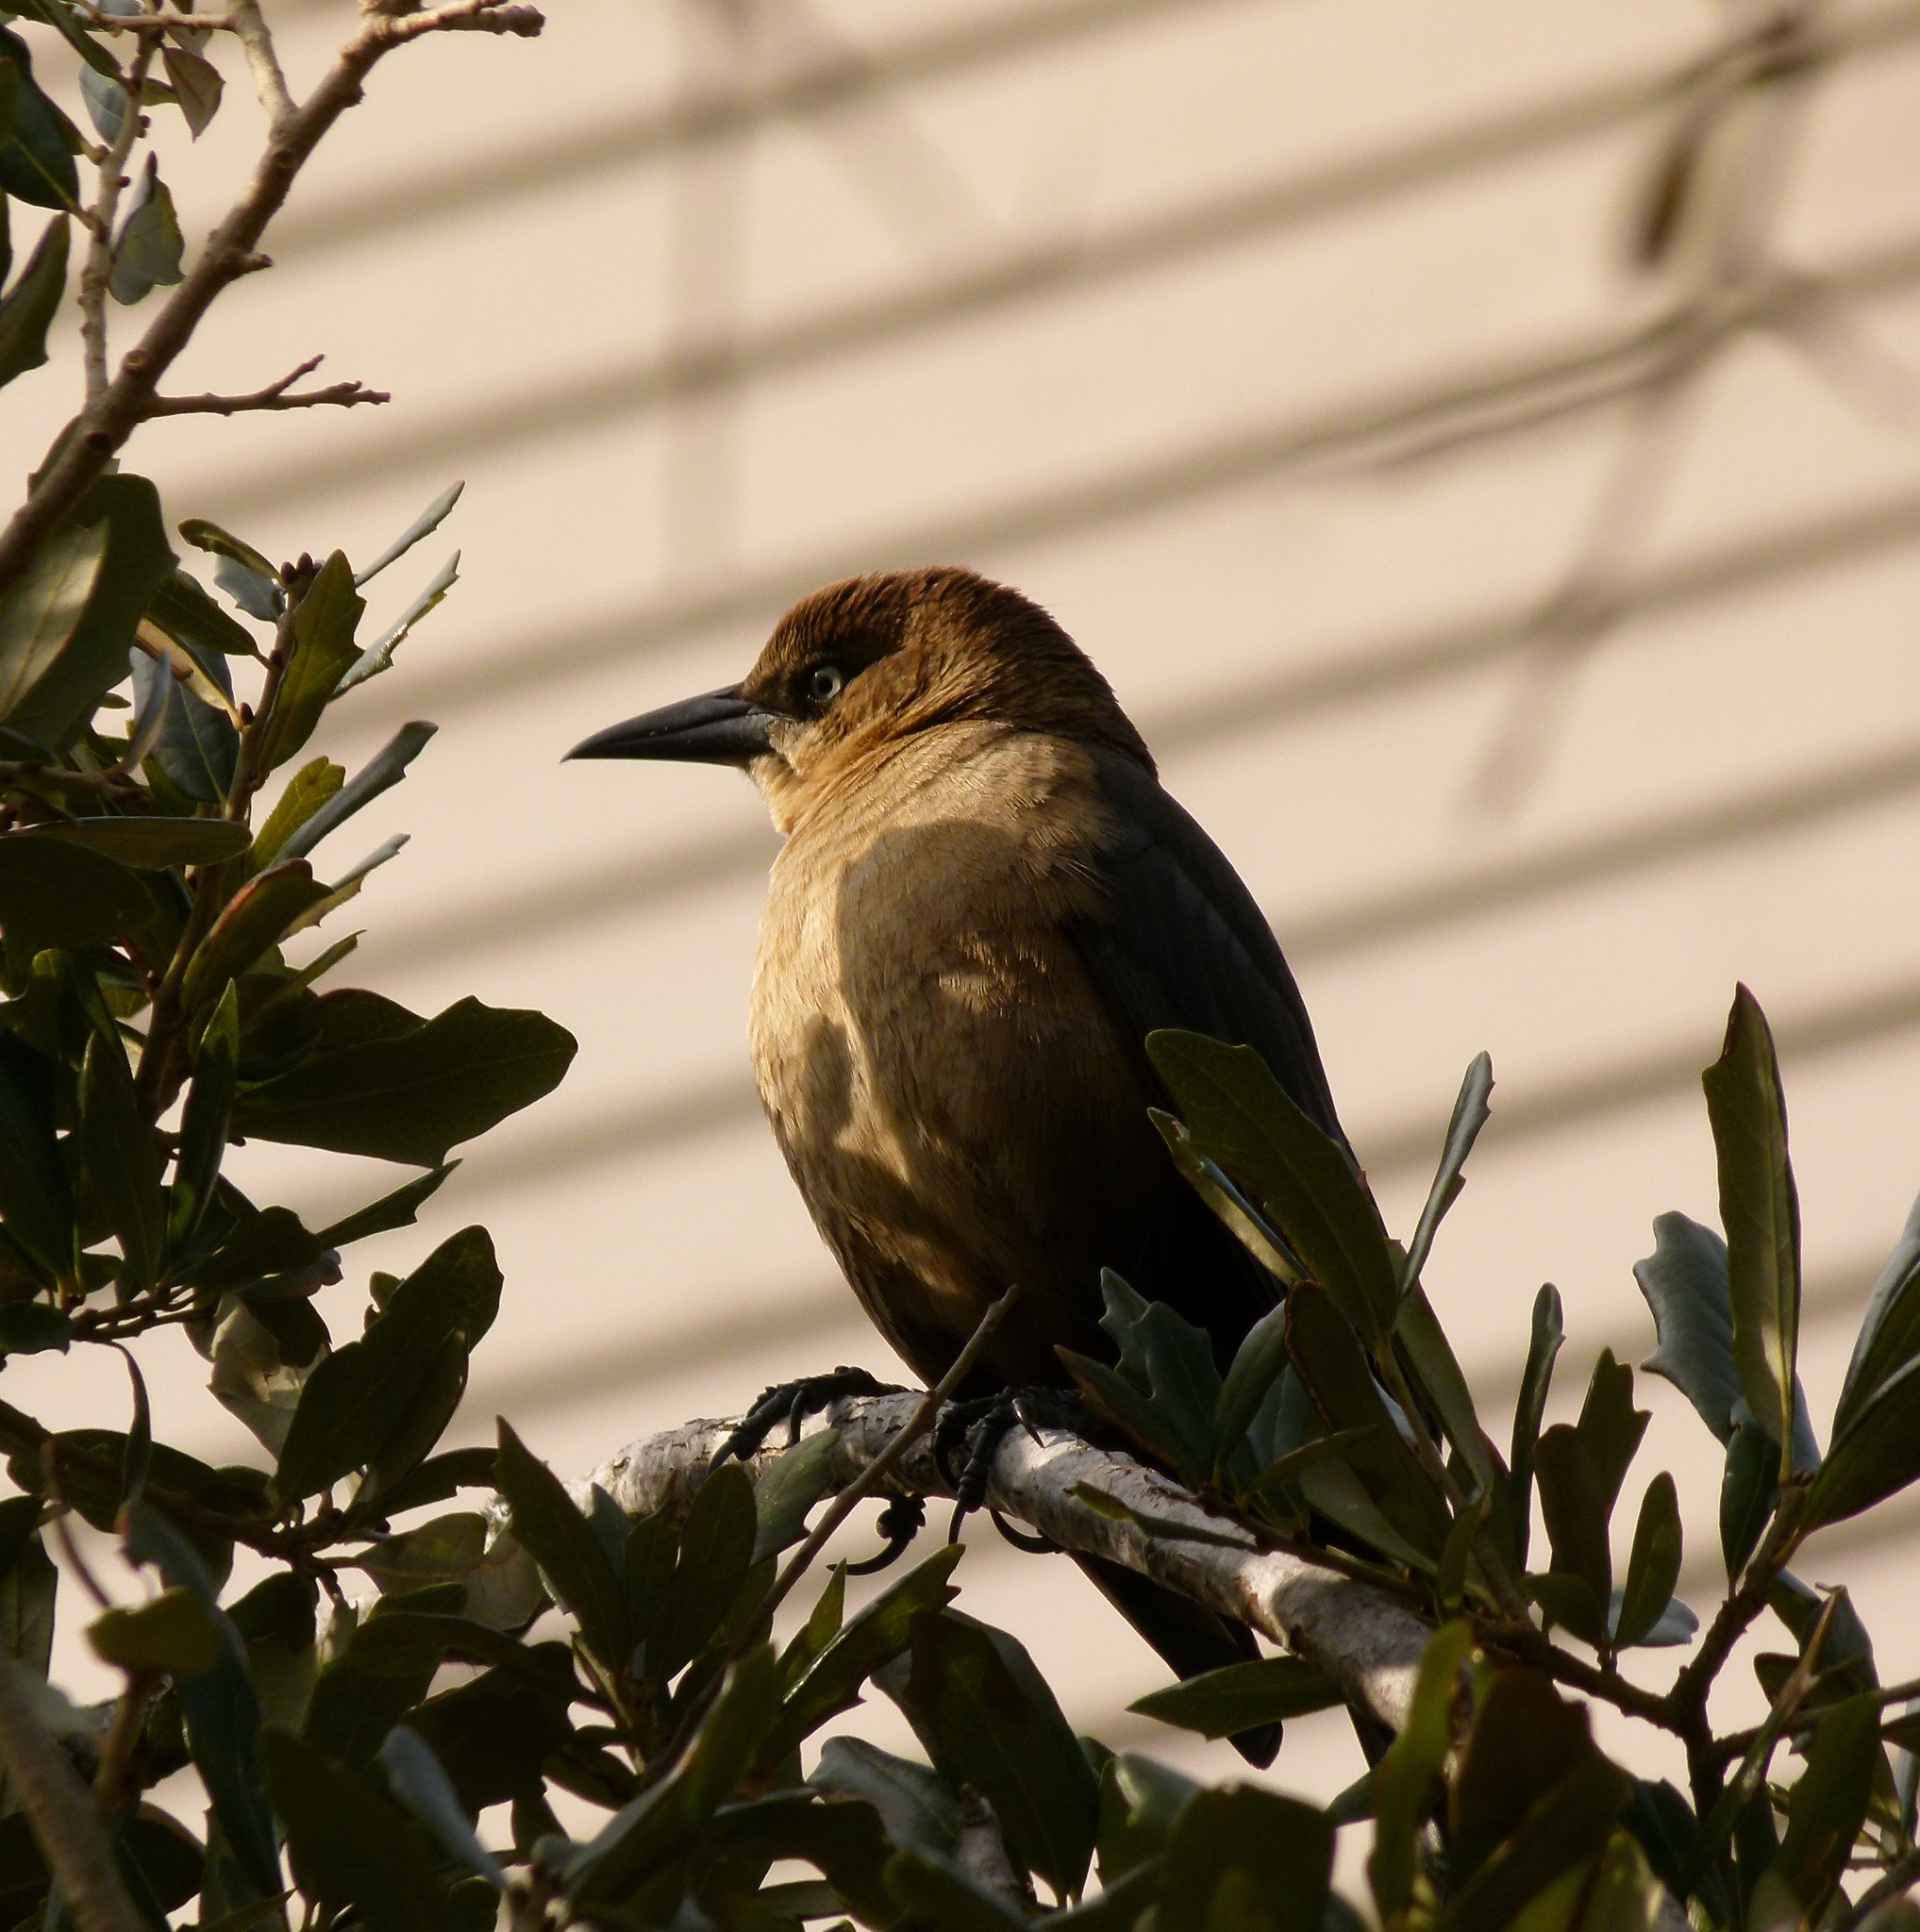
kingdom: Animalia
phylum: Chordata
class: Aves
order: Passeriformes
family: Icteridae
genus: Quiscalus
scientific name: Quiscalus major
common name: Boat-tailed grackle
